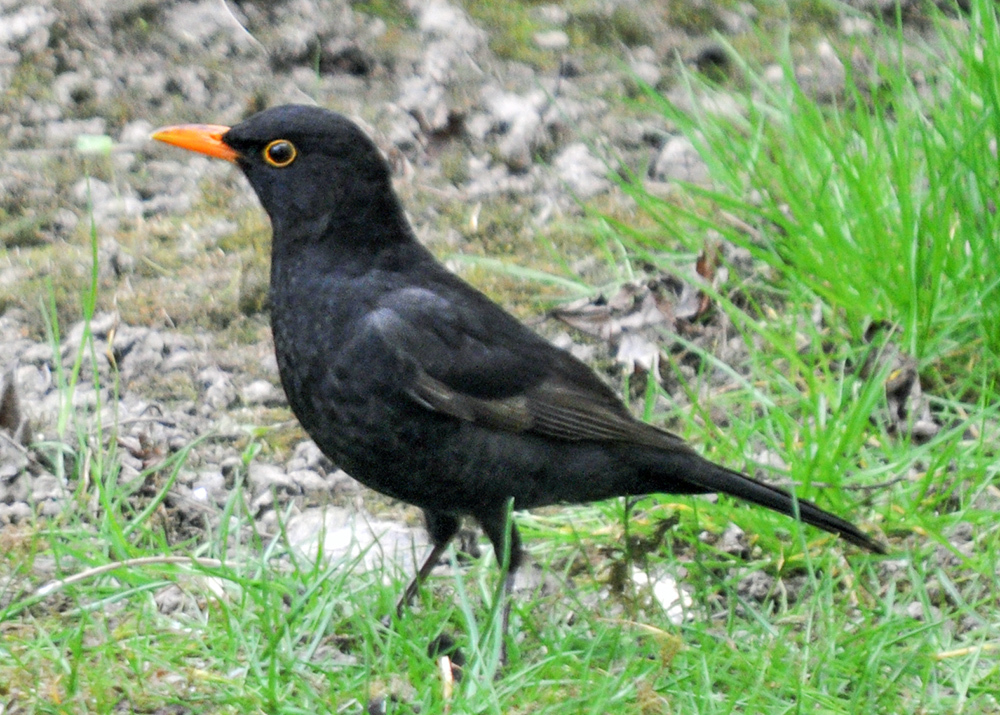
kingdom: Animalia
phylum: Chordata
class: Aves
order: Passeriformes
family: Turdidae
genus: Turdus
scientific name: Turdus merula
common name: Common blackbird
